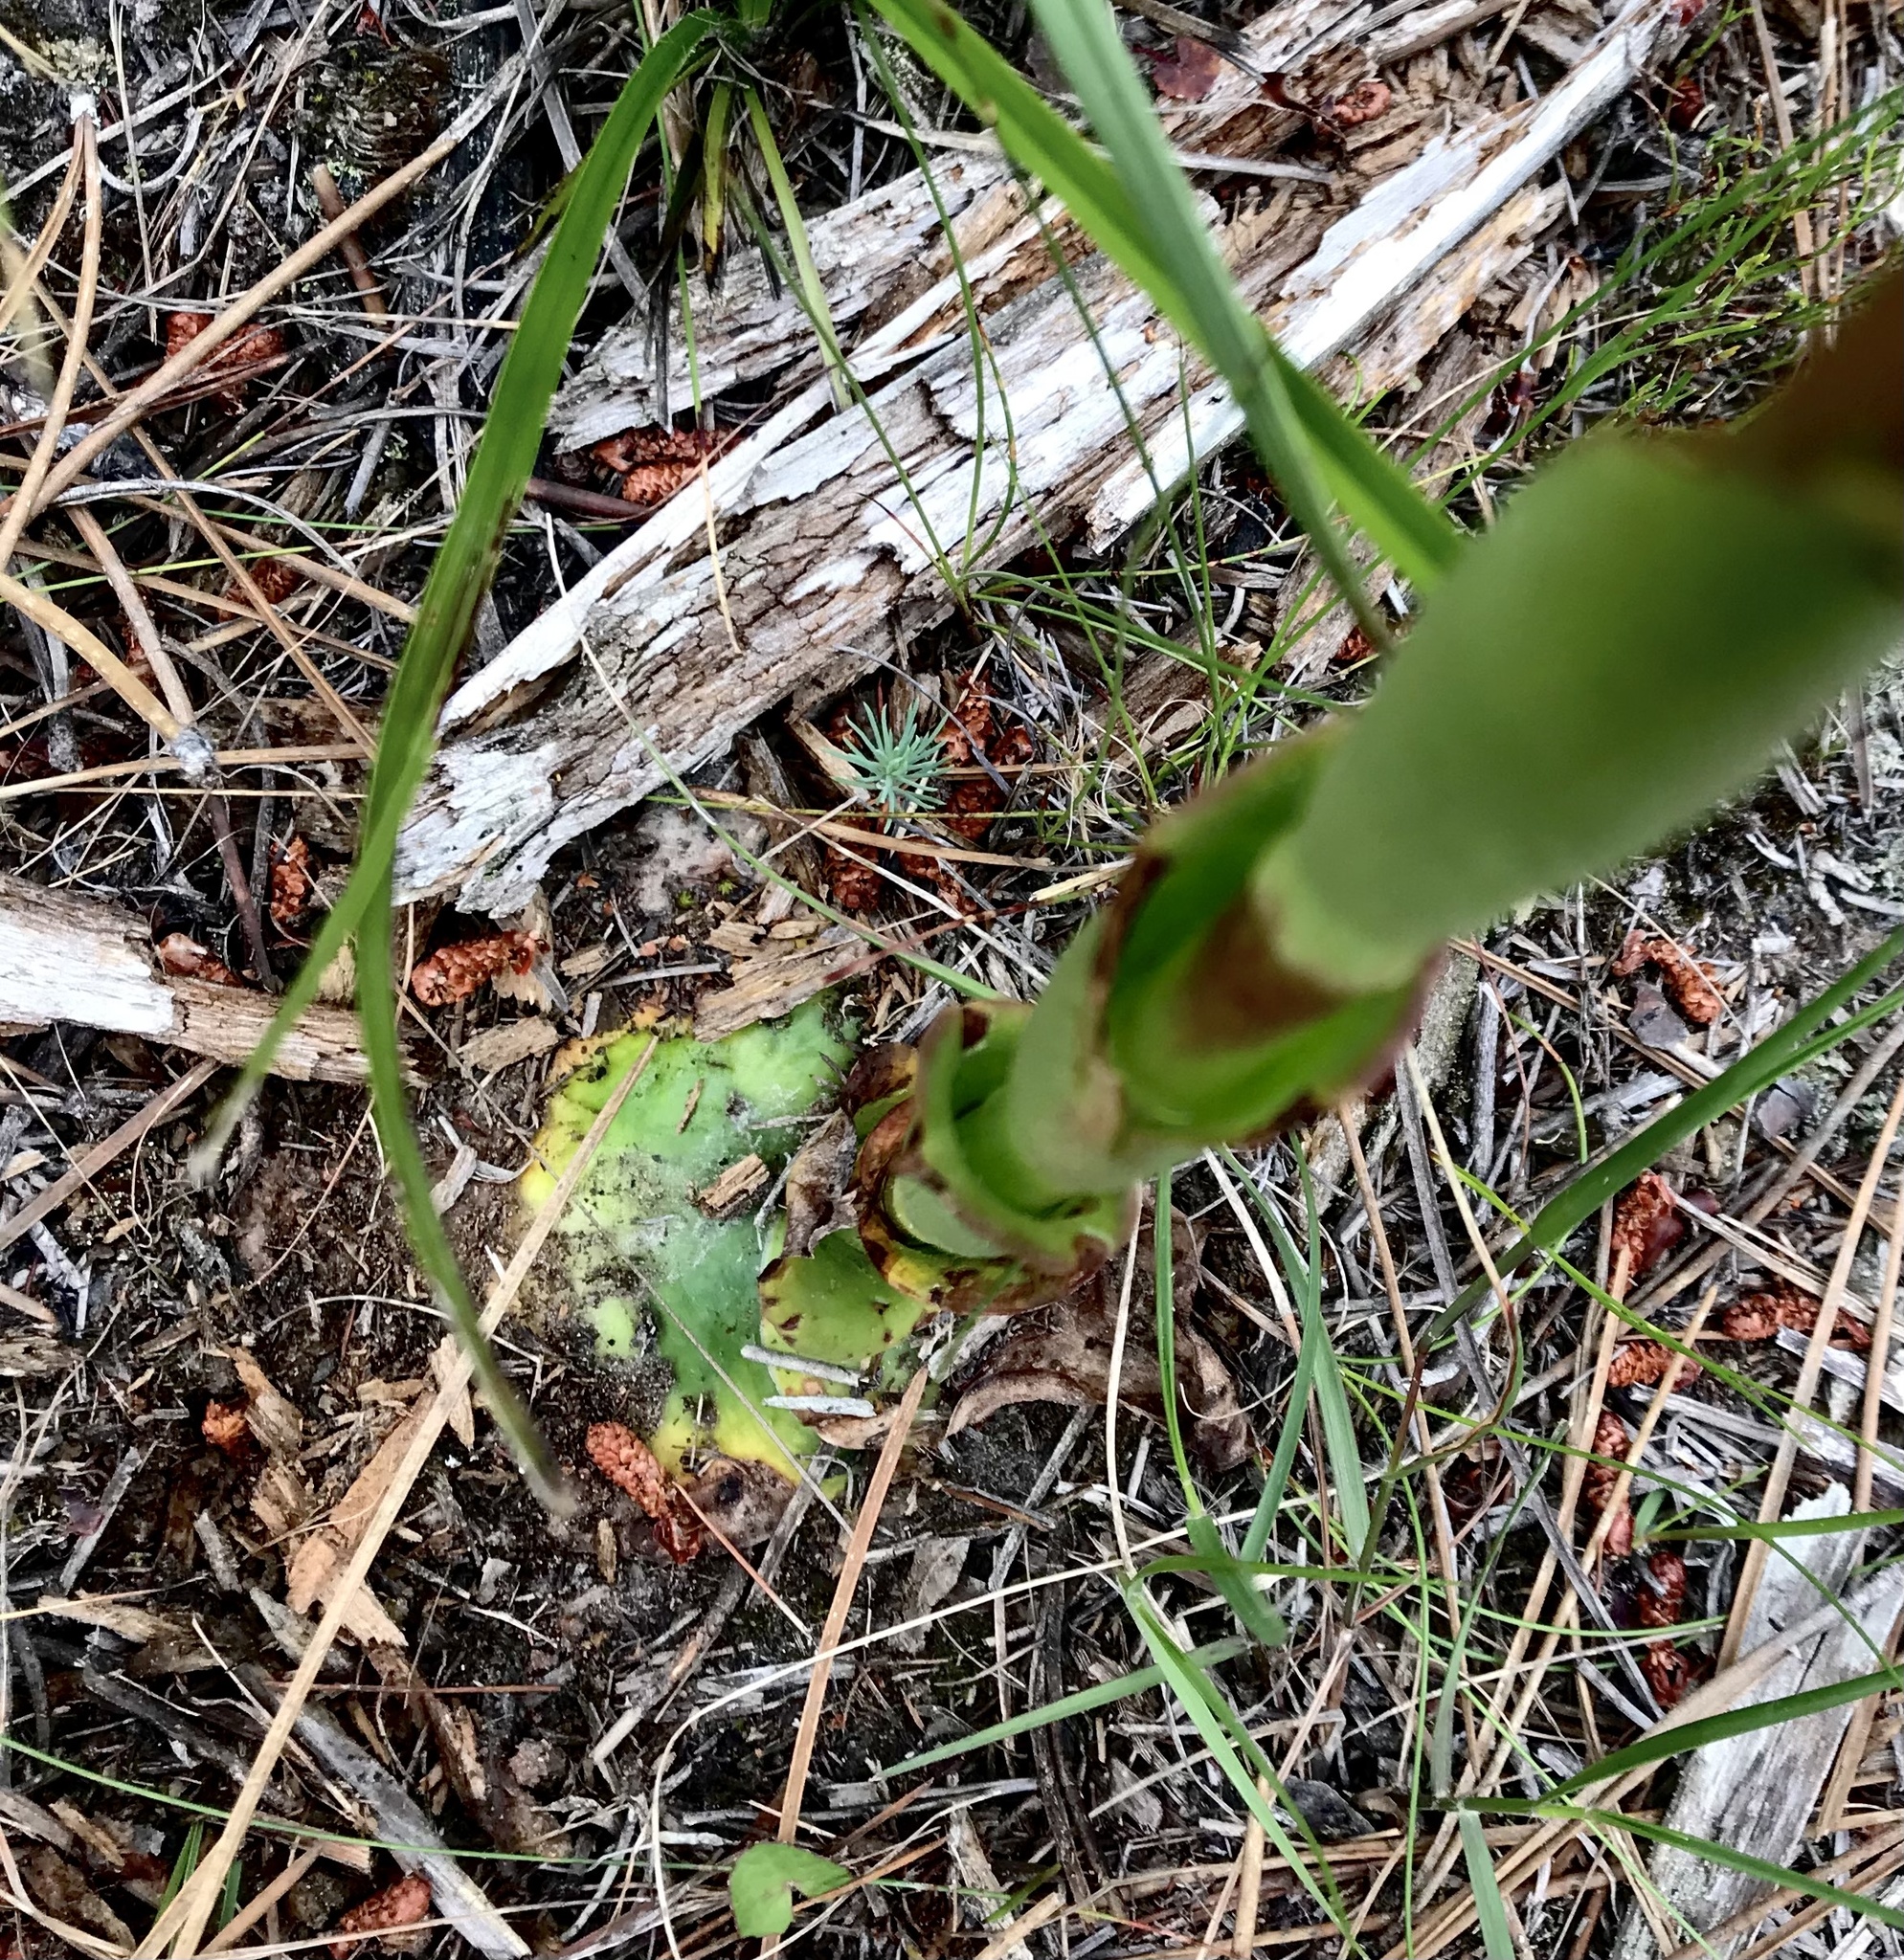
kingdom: Plantae
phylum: Tracheophyta
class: Liliopsida
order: Asparagales
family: Orchidaceae
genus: Satyrium
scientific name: Satyrium acuminatum
